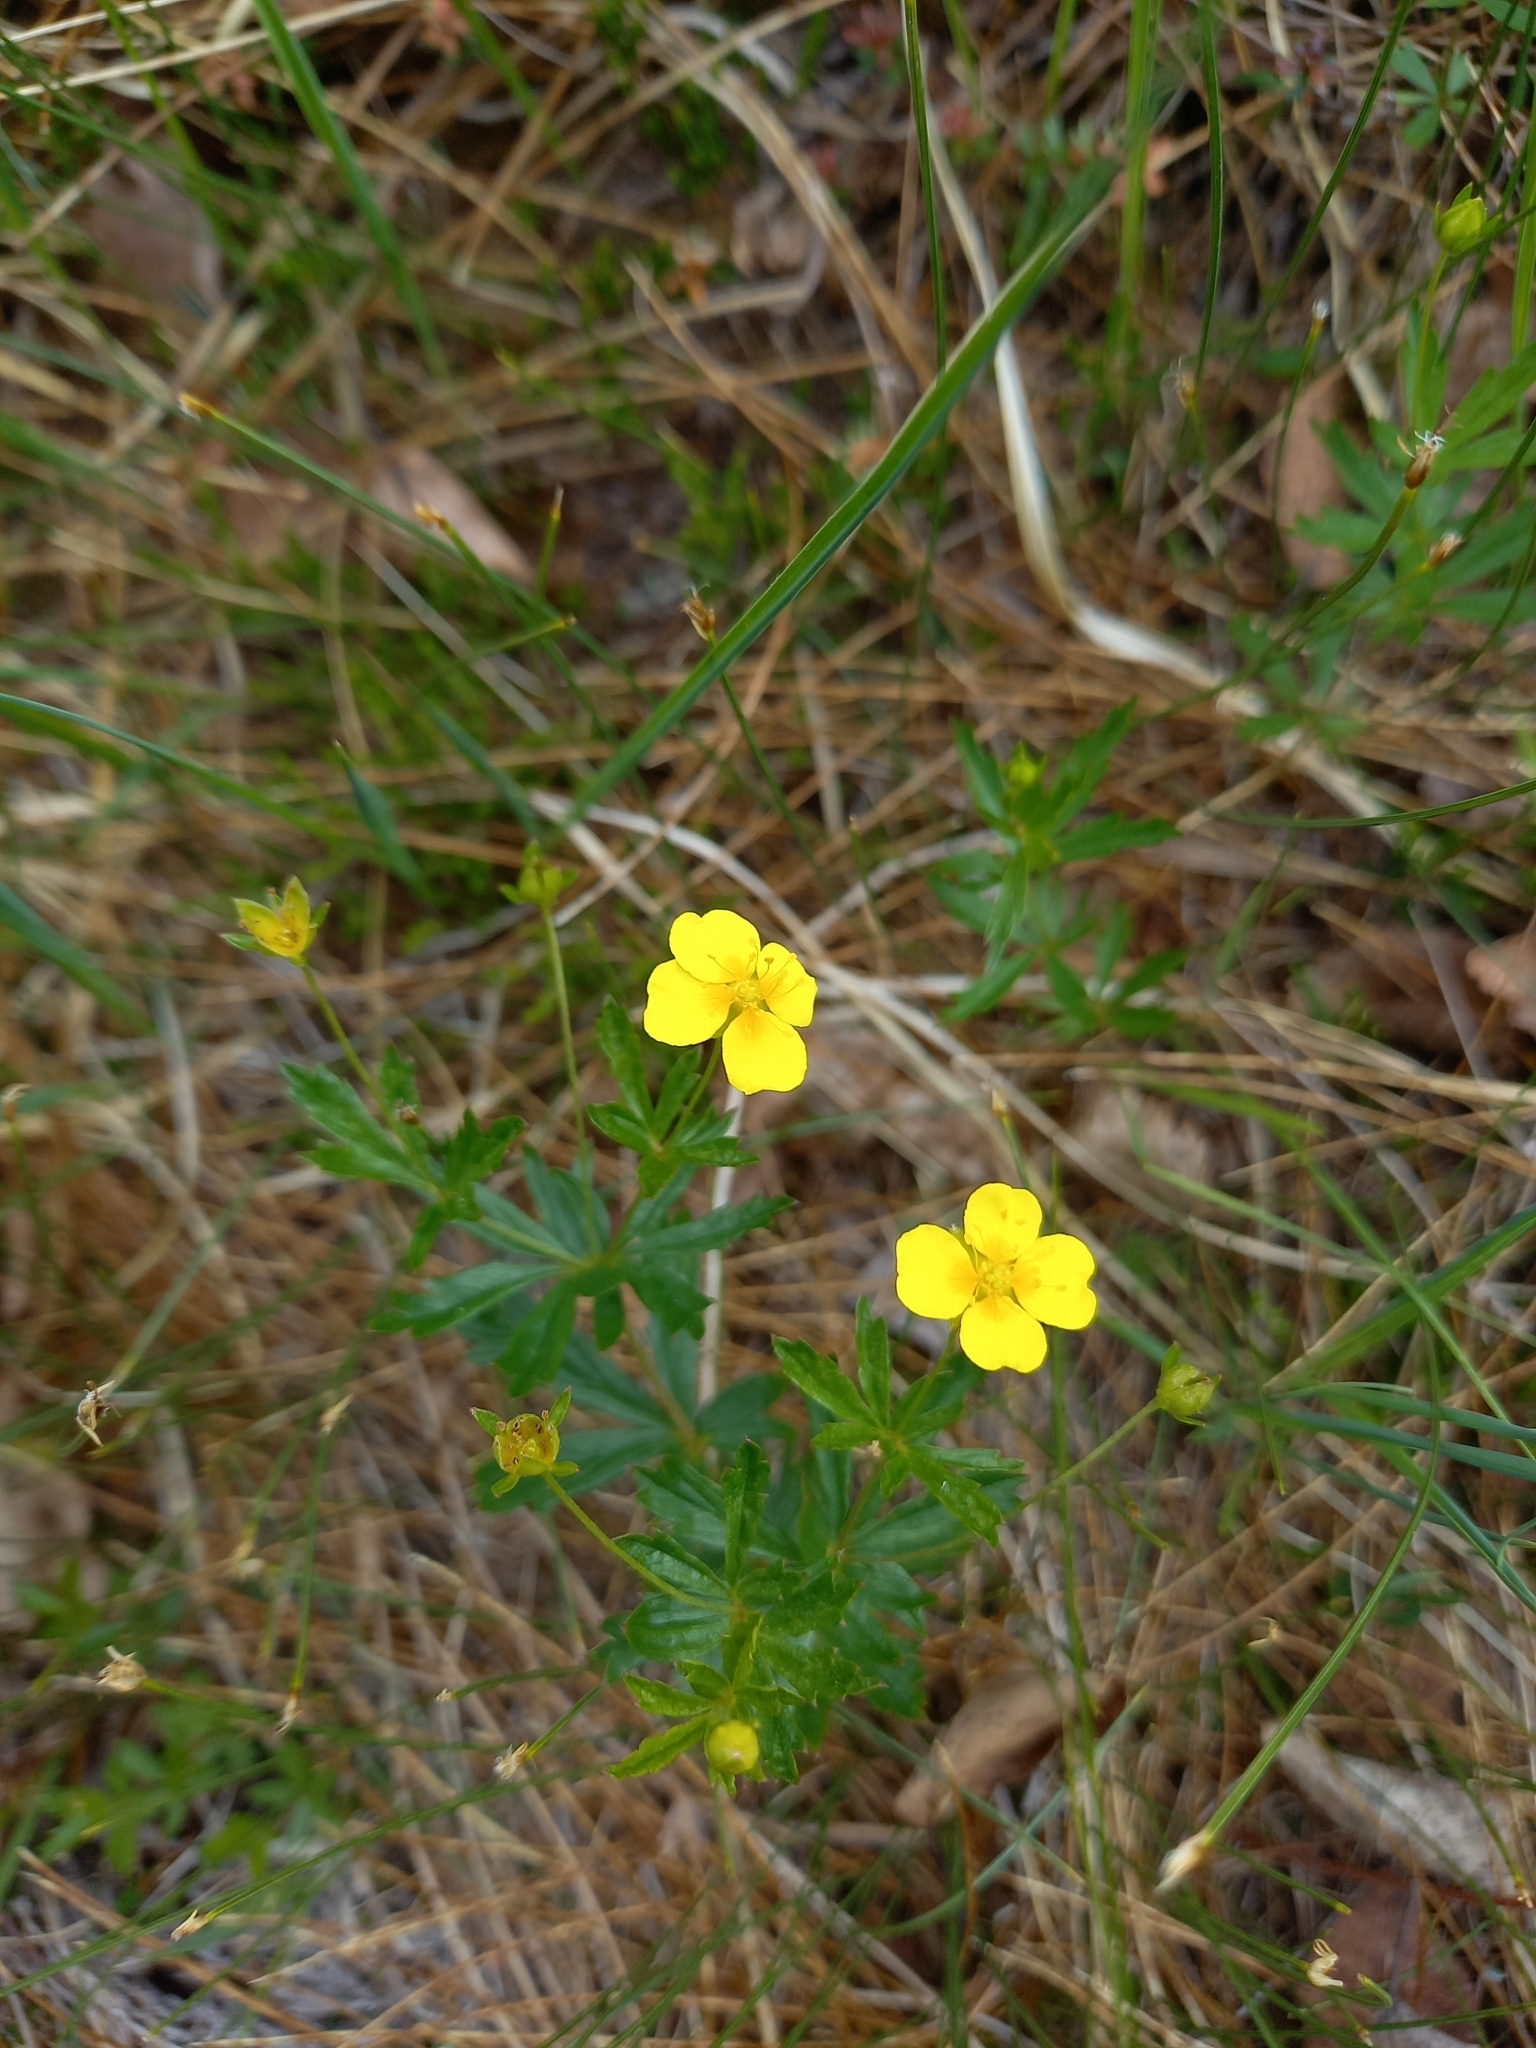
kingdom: Plantae
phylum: Tracheophyta
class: Magnoliopsida
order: Rosales
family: Rosaceae
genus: Potentilla
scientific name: Potentilla erecta
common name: Tormentil
